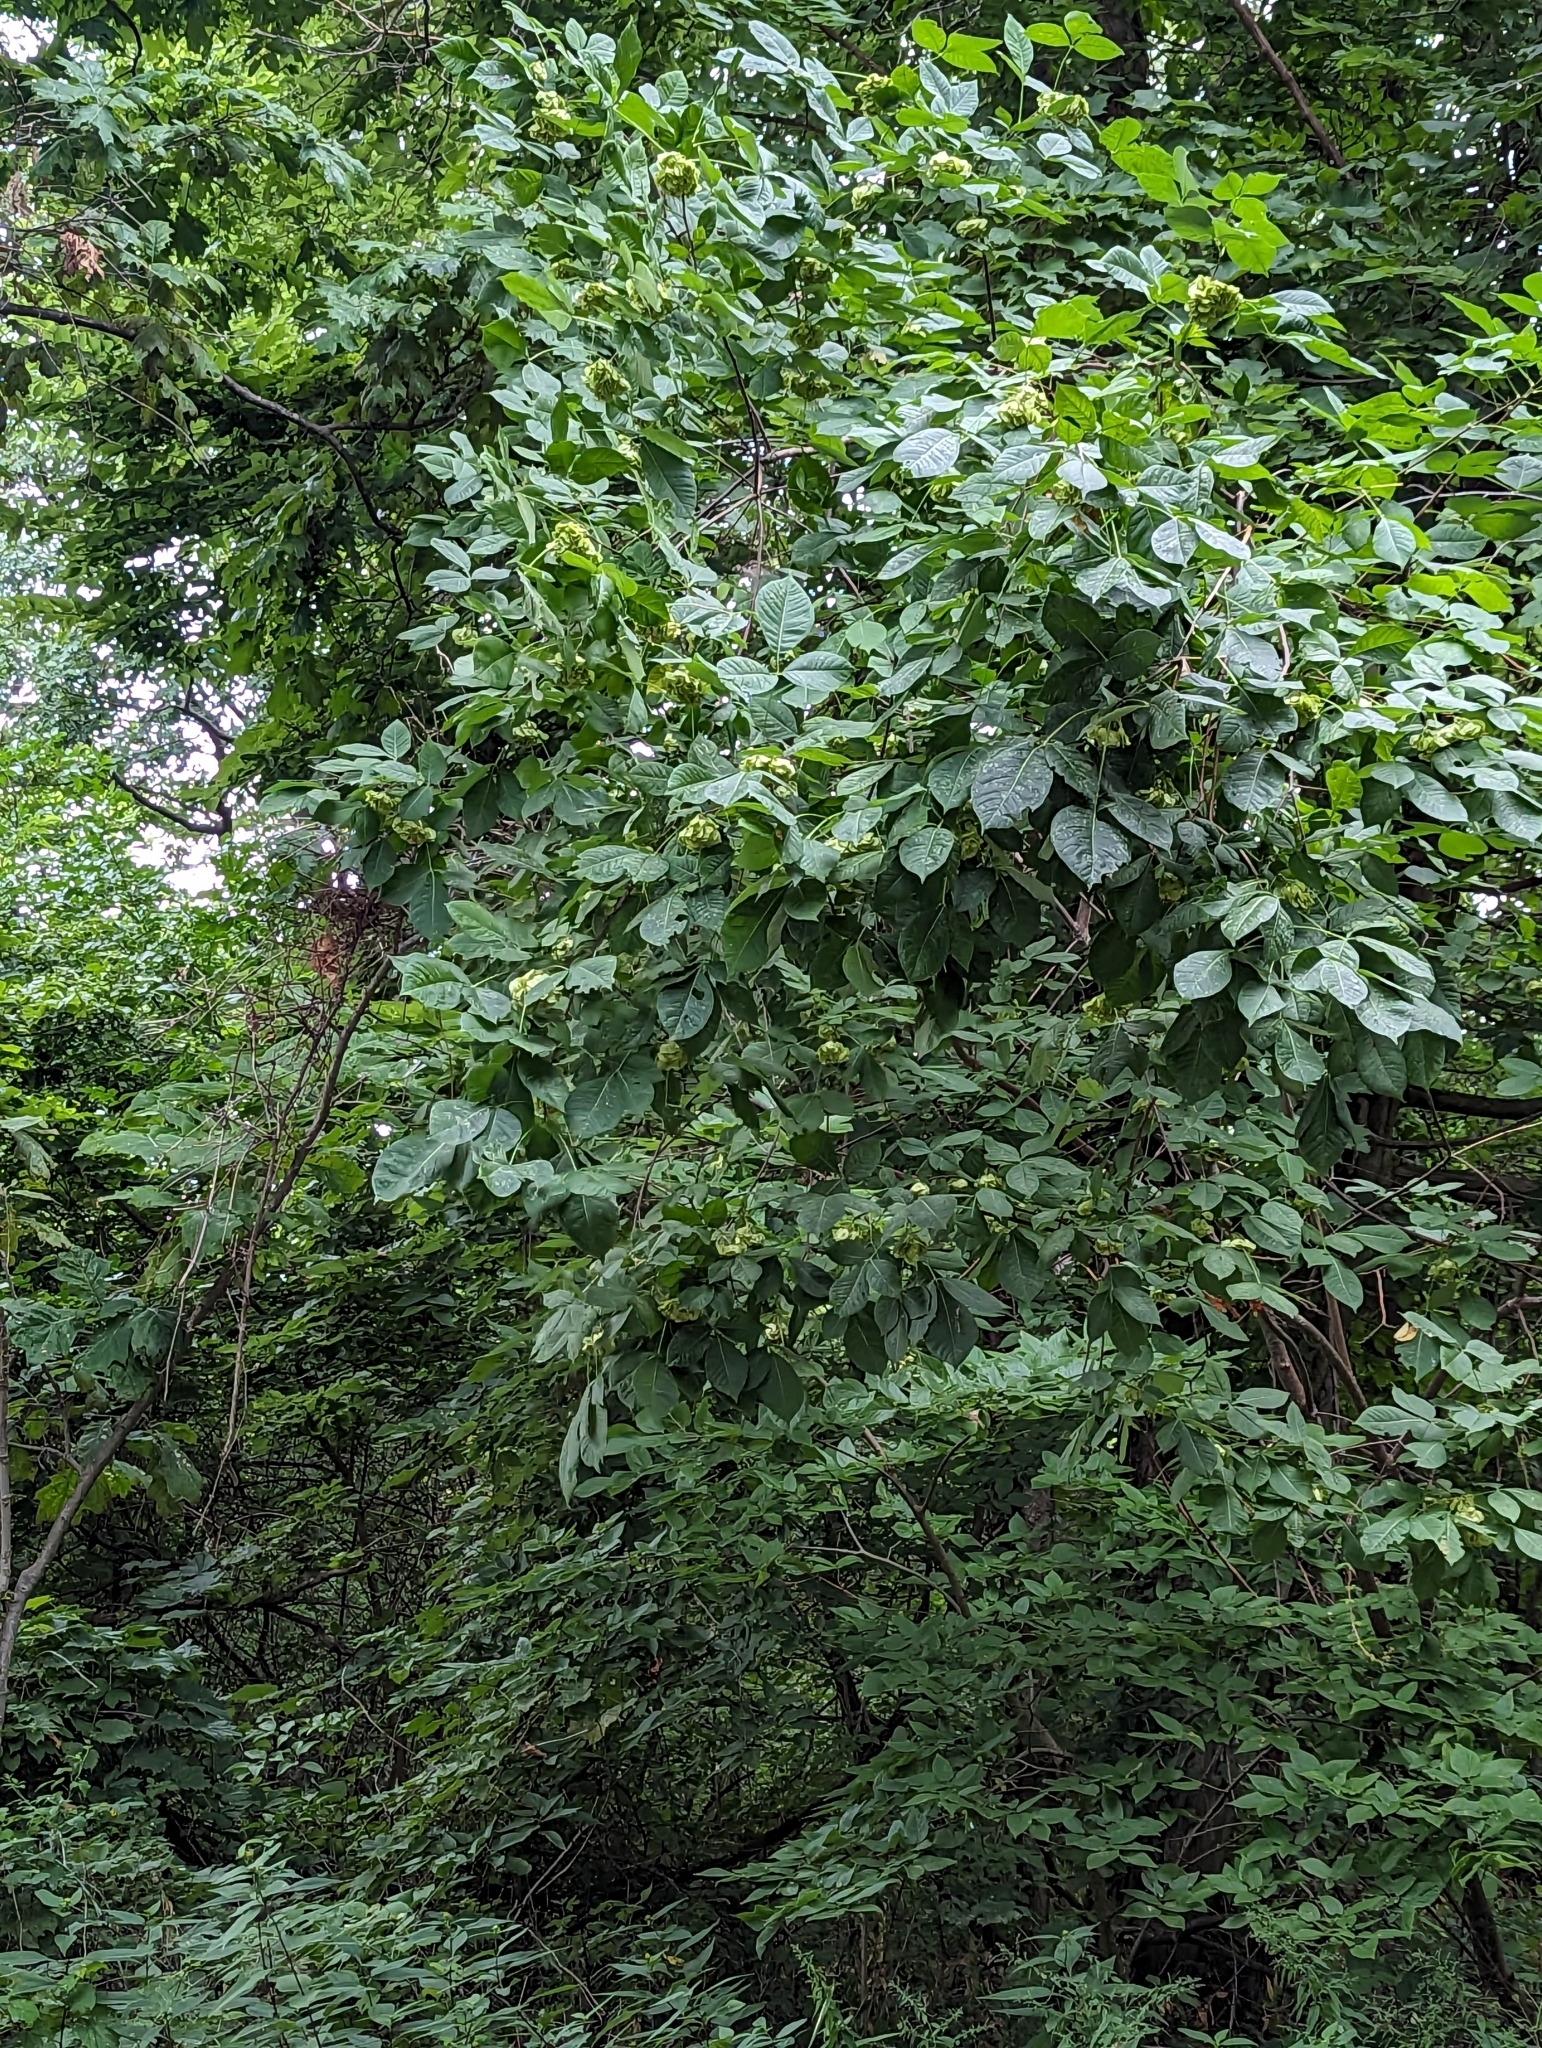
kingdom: Plantae
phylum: Tracheophyta
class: Magnoliopsida
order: Sapindales
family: Rutaceae
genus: Ptelea
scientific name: Ptelea trifoliata
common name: Common hop-tree
